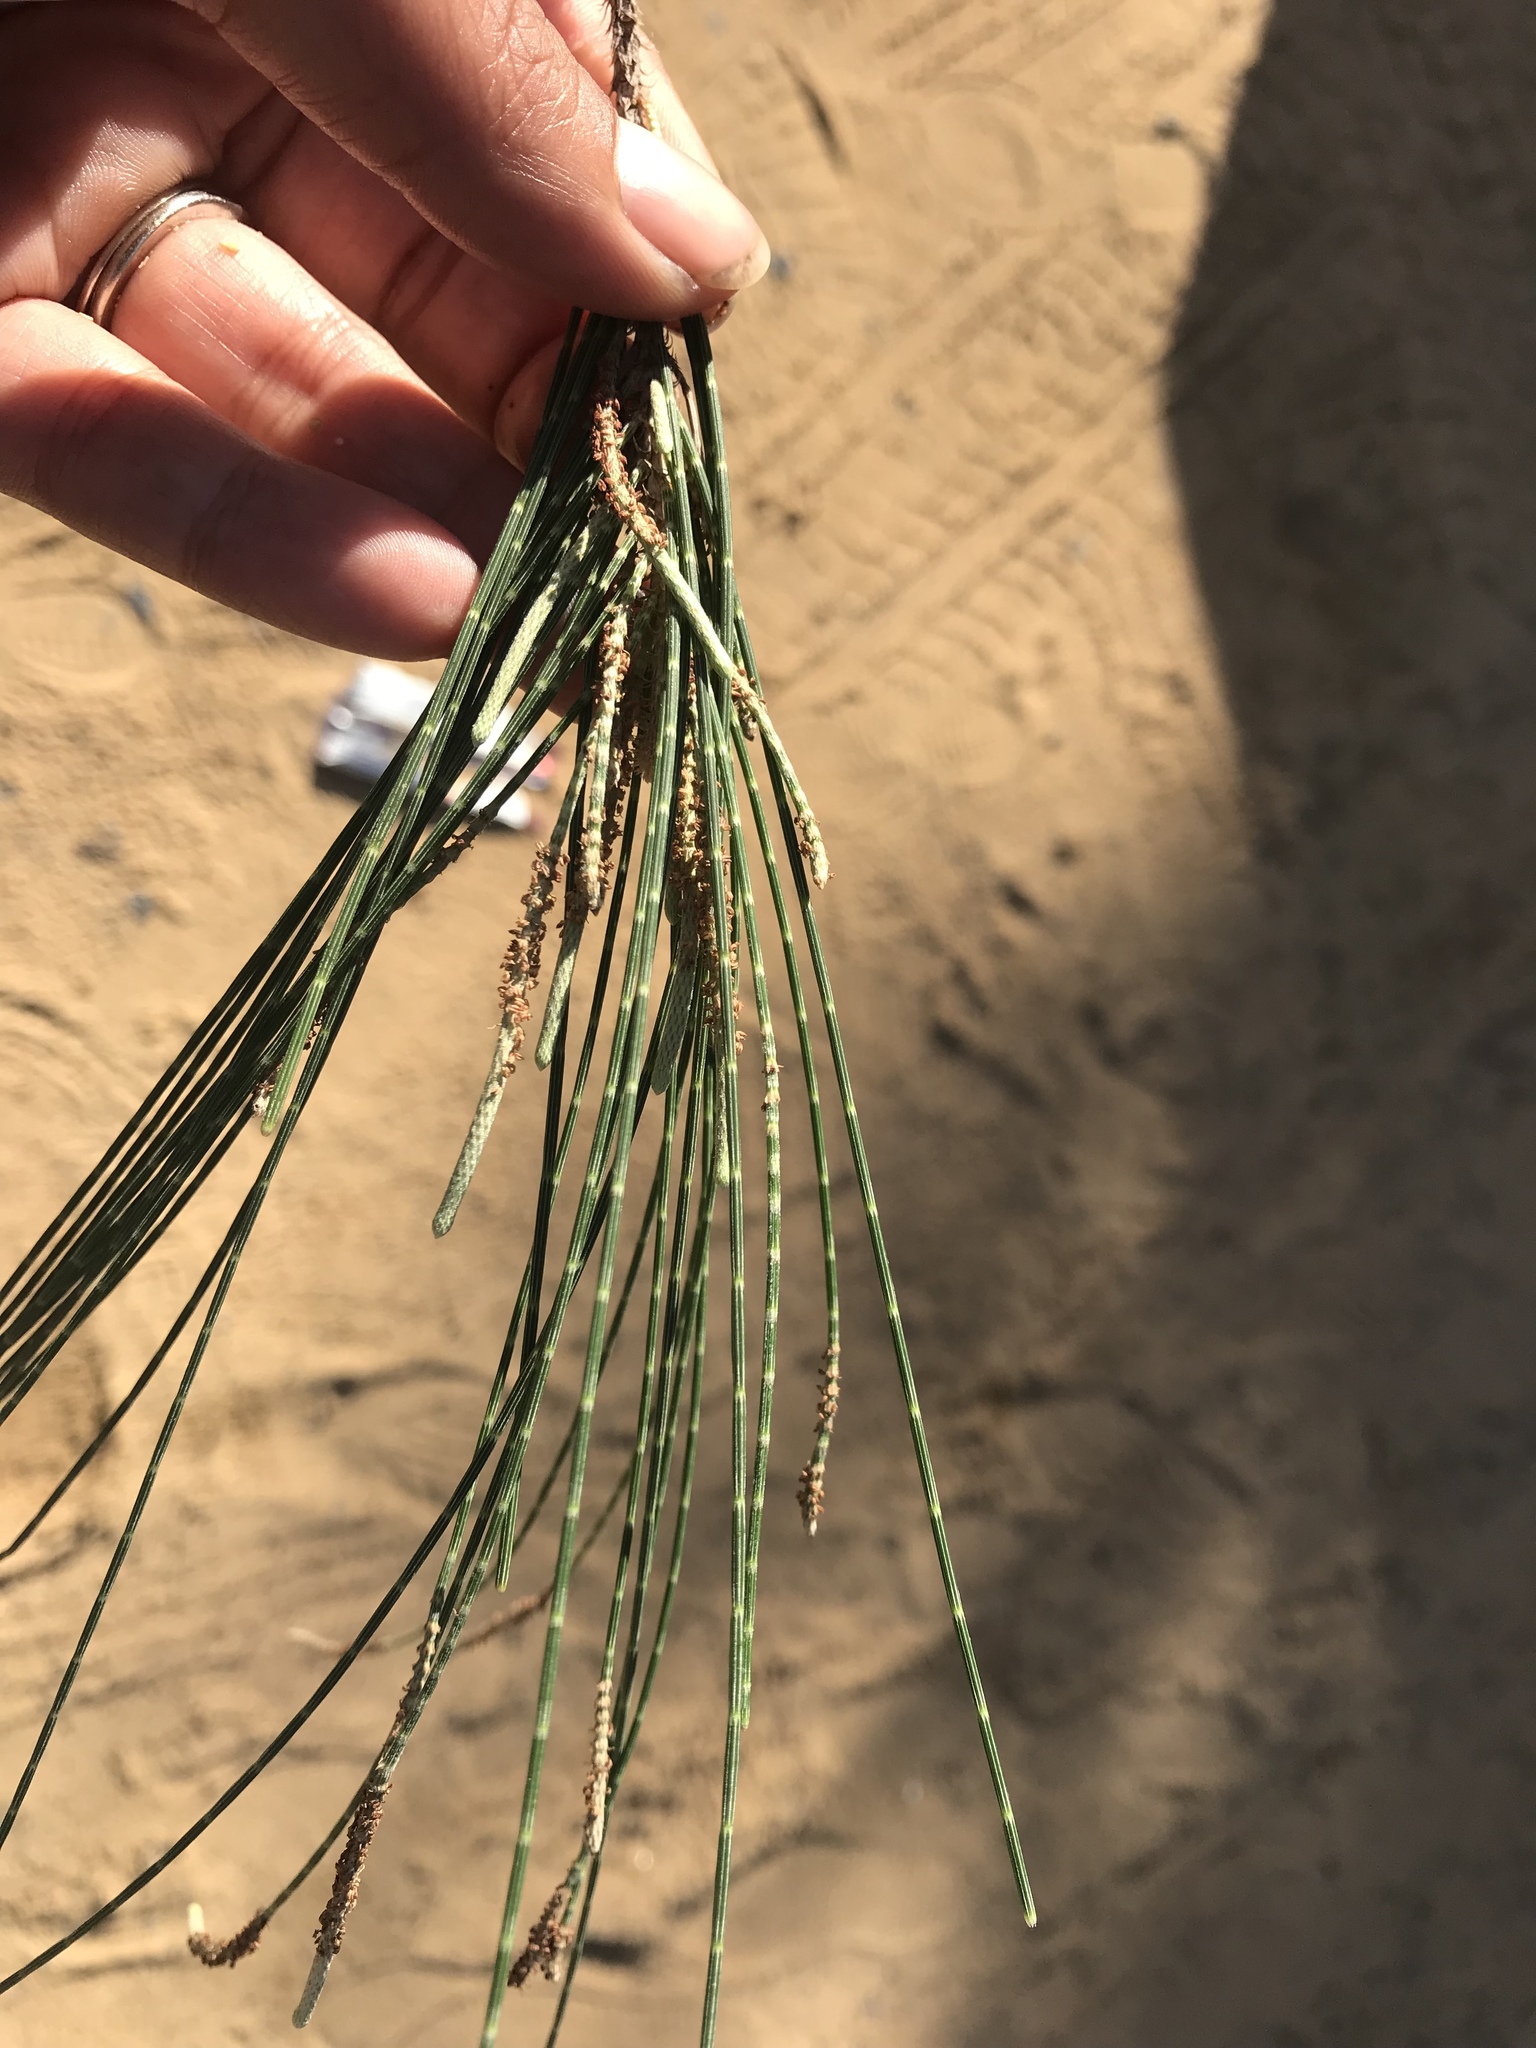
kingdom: Plantae
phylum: Tracheophyta
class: Magnoliopsida
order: Fagales
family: Casuarinaceae
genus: Casuarina
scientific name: Casuarina equisetifolia
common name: Beach sheoak
